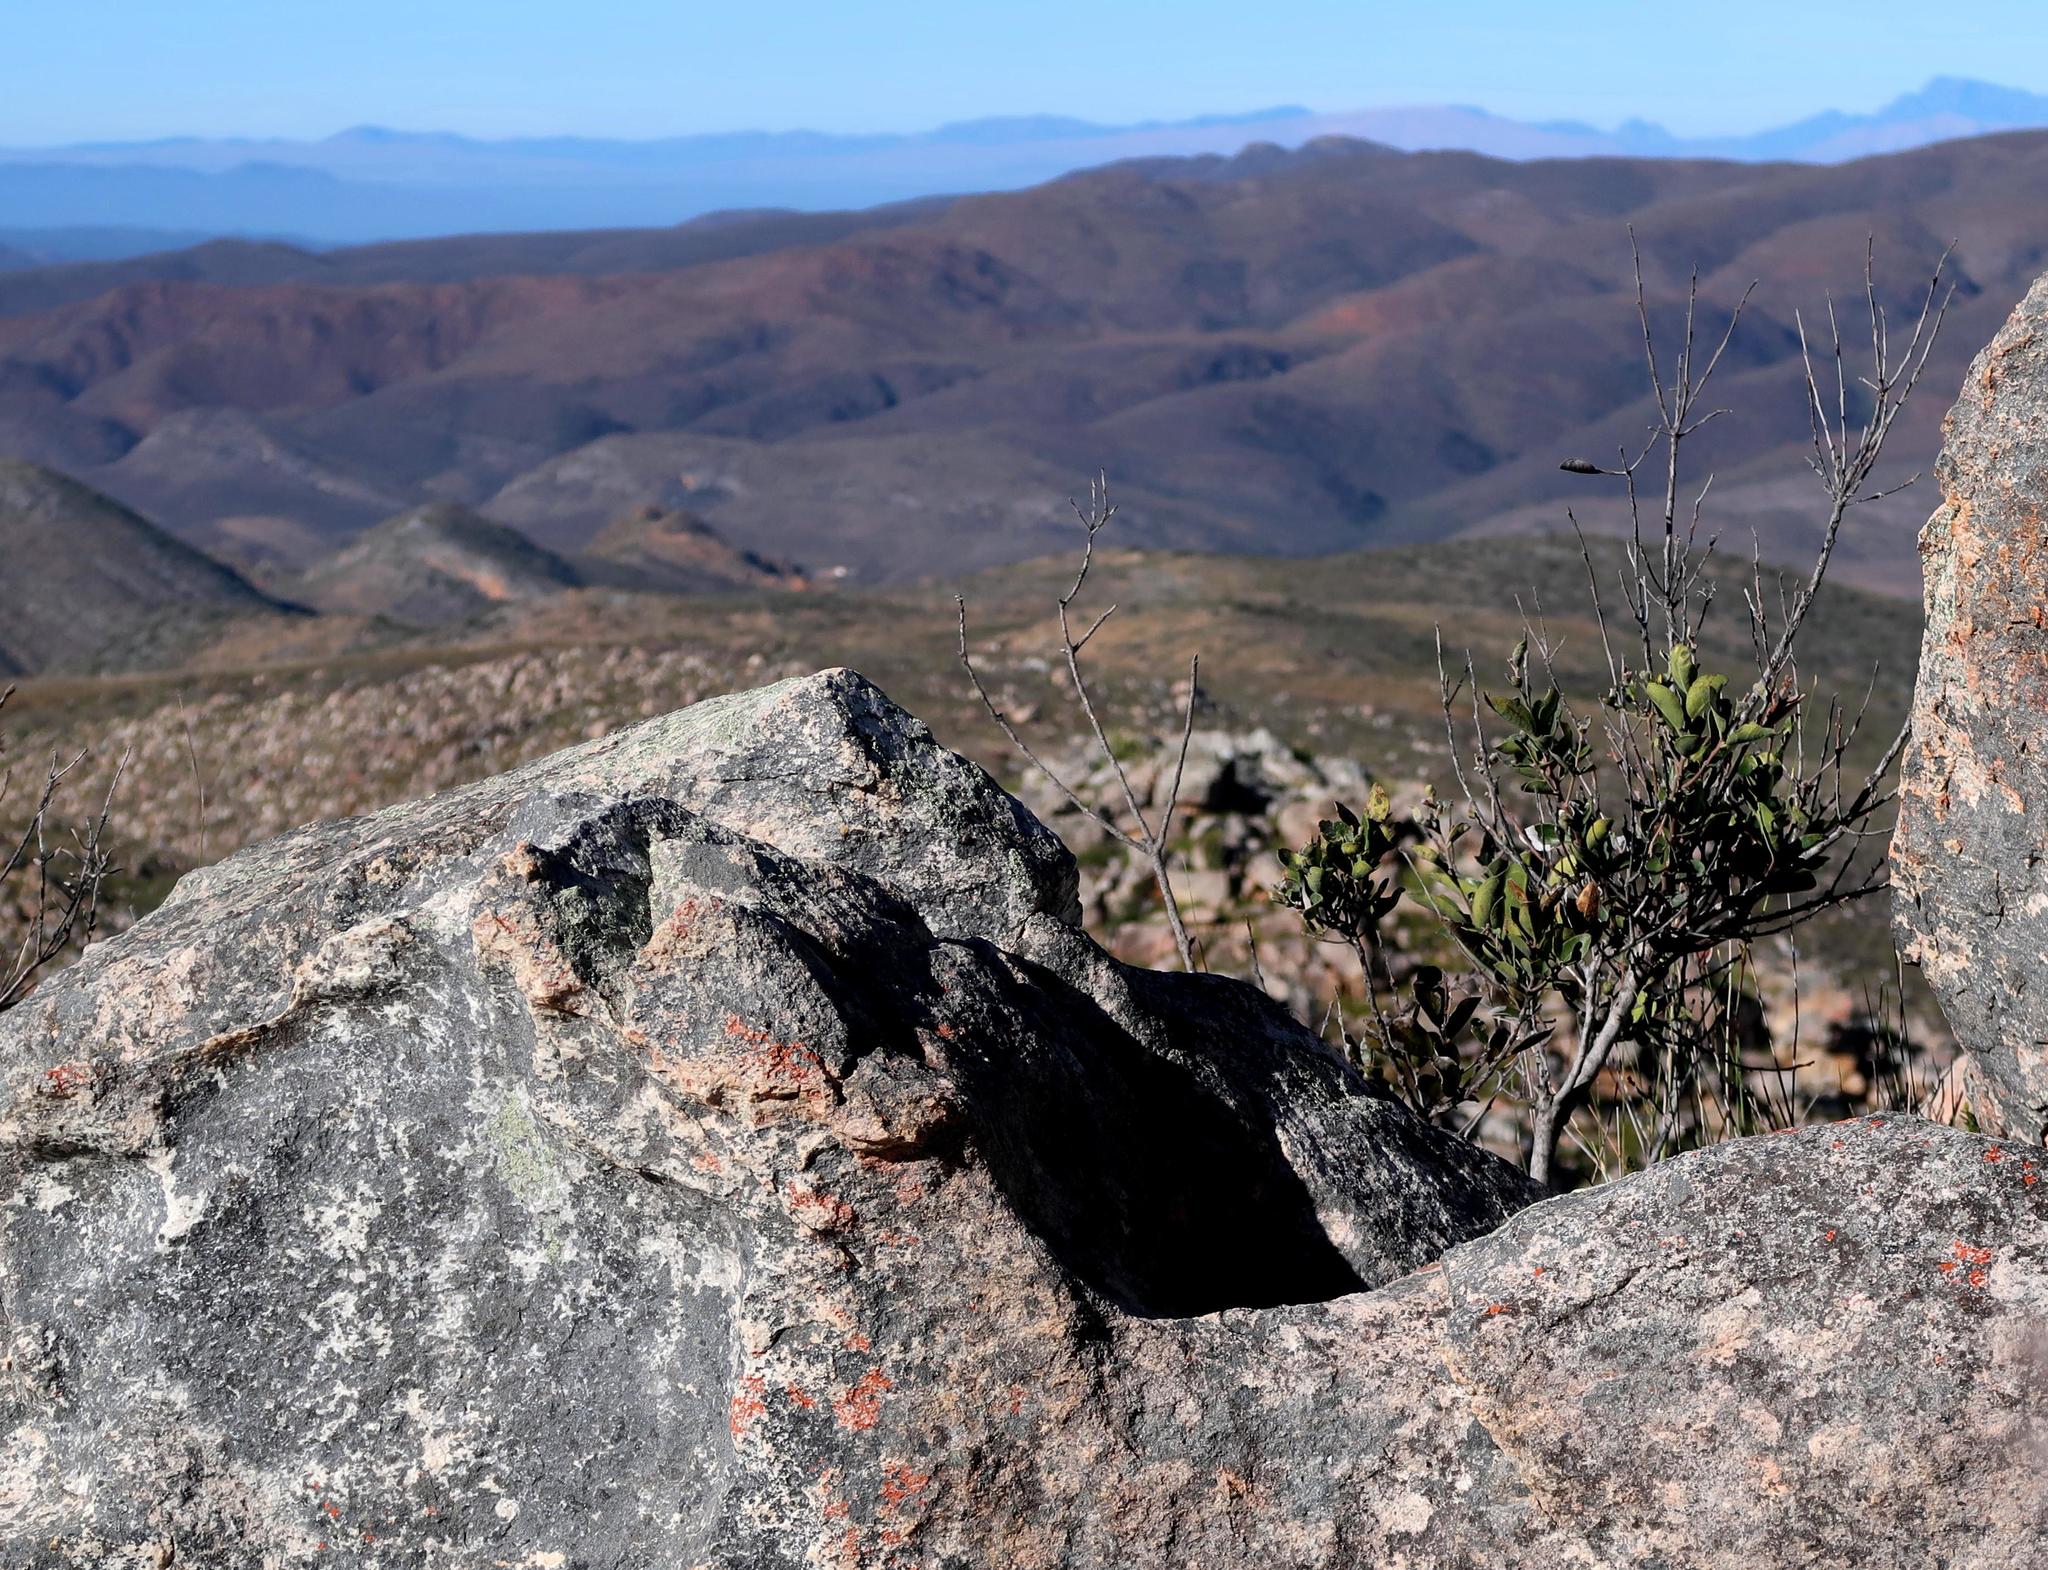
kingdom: Plantae
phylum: Tracheophyta
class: Magnoliopsida
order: Ericales
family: Ebenaceae
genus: Euclea
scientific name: Euclea polyandra
